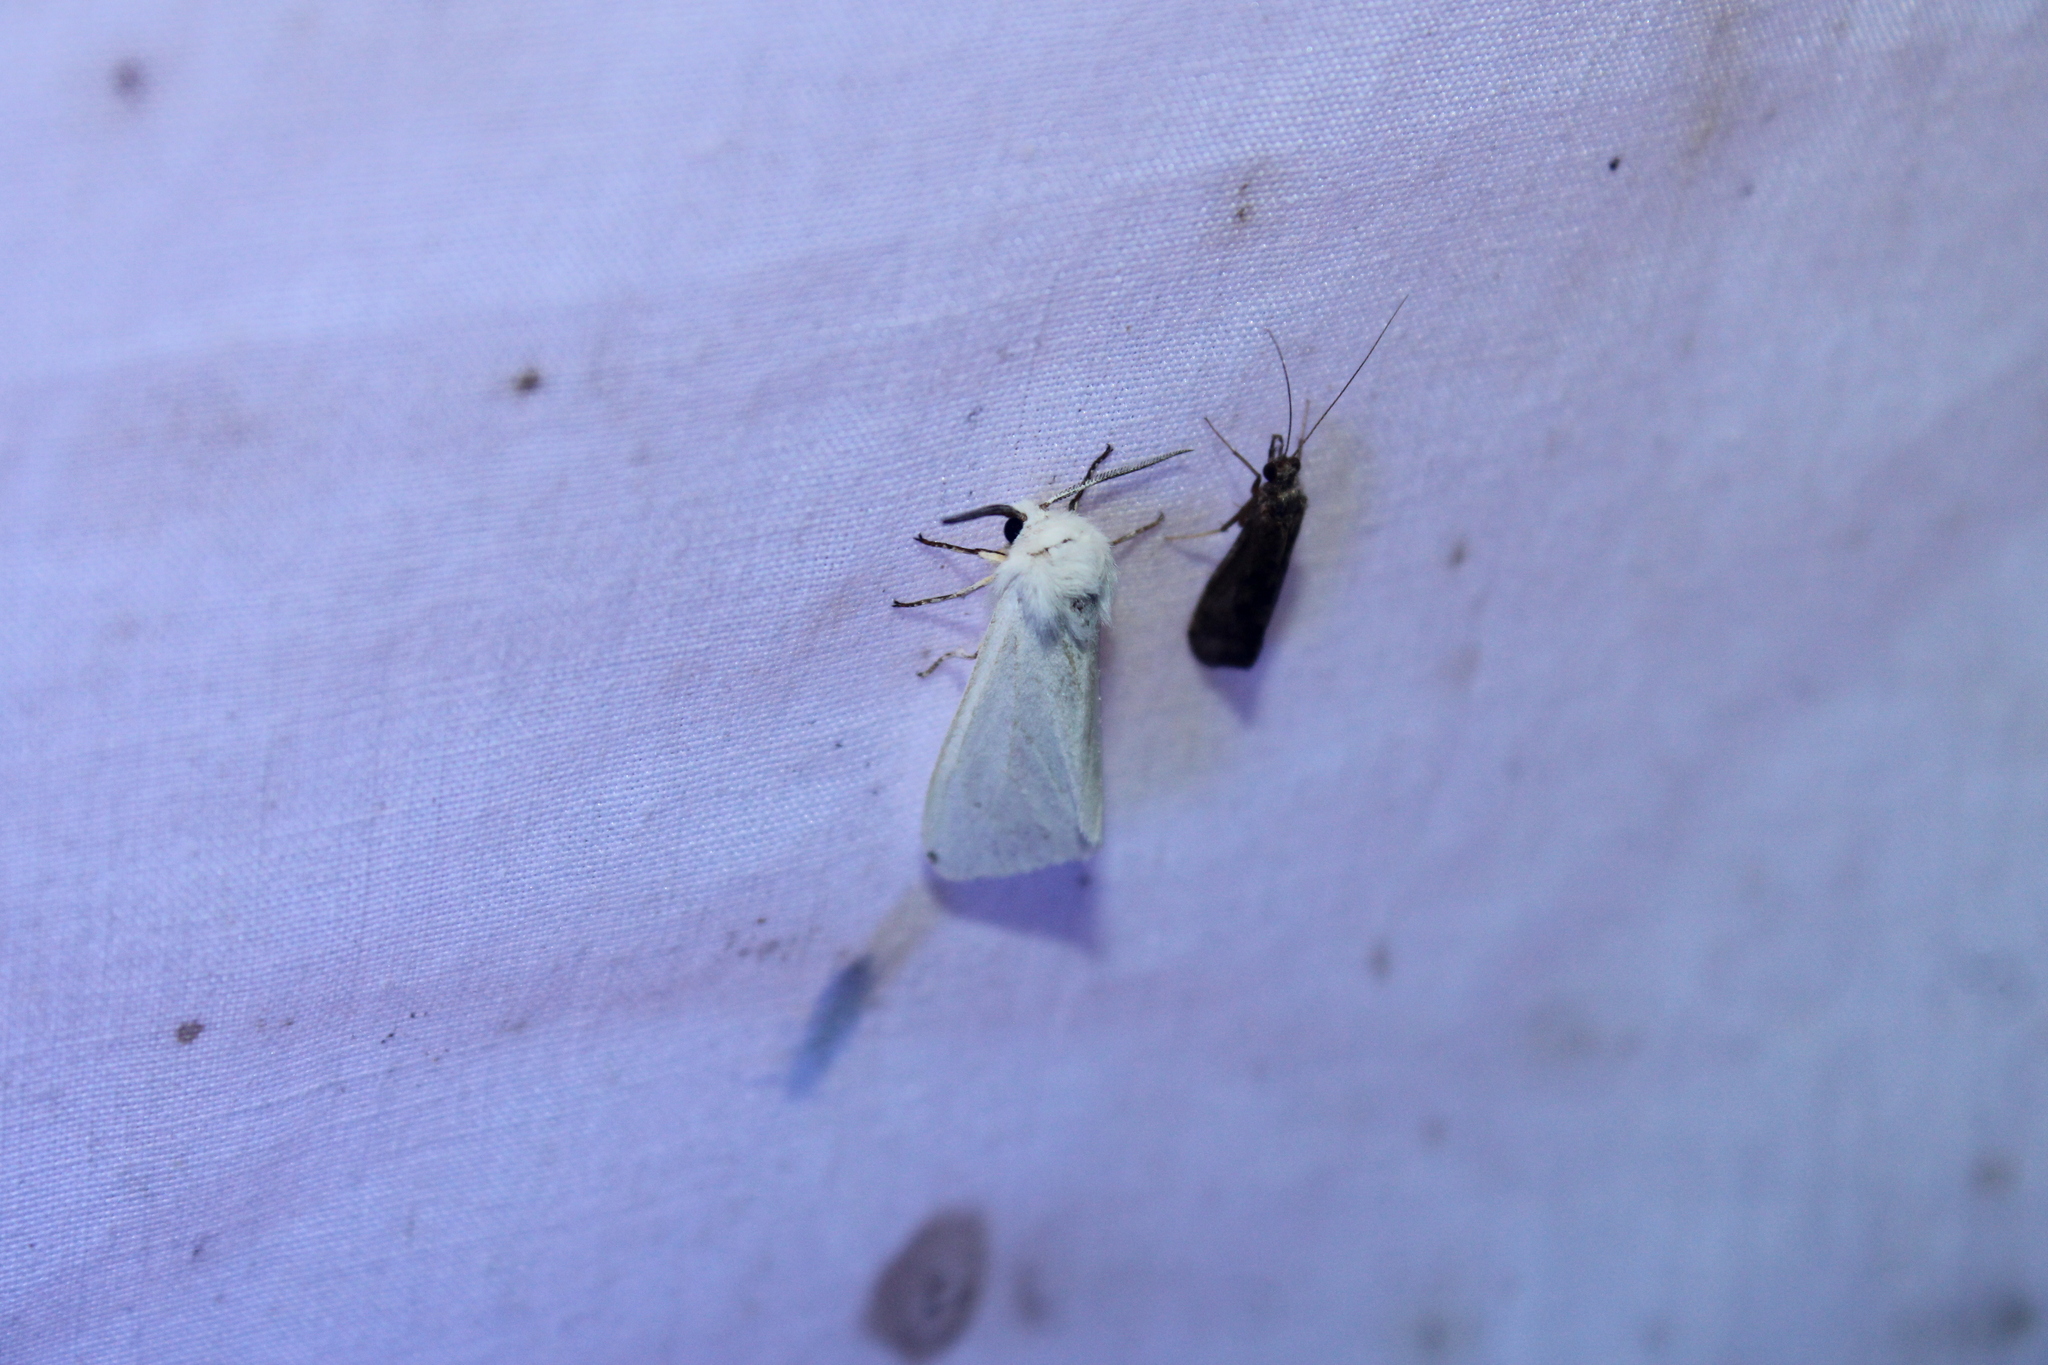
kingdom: Animalia
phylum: Arthropoda
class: Insecta
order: Lepidoptera
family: Erebidae
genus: Hyphantria
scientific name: Hyphantria cunea
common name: American white moth
